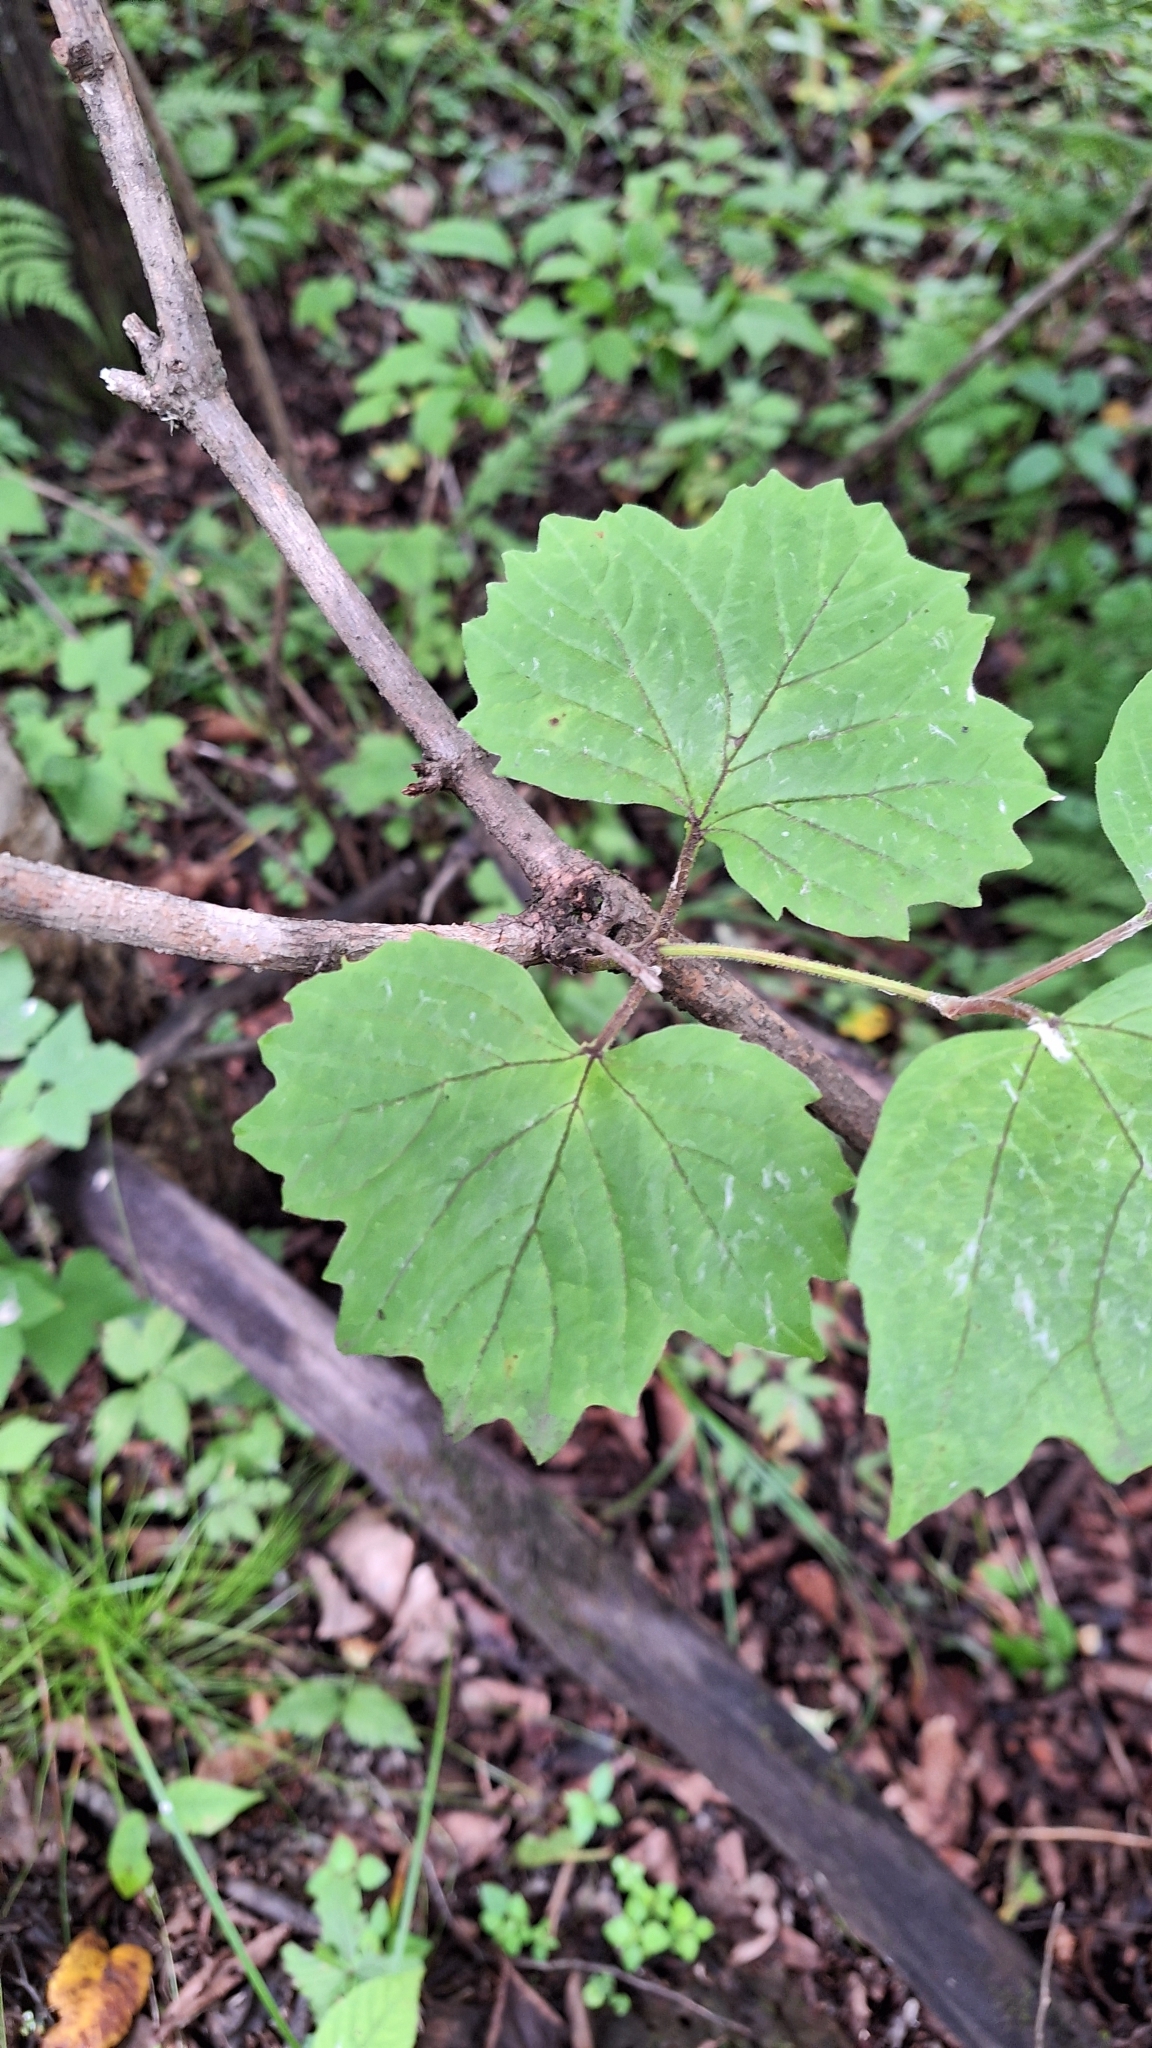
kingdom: Plantae
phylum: Tracheophyta
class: Magnoliopsida
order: Dipsacales
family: Viburnaceae
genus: Viburnum
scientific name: Viburnum sargentii
